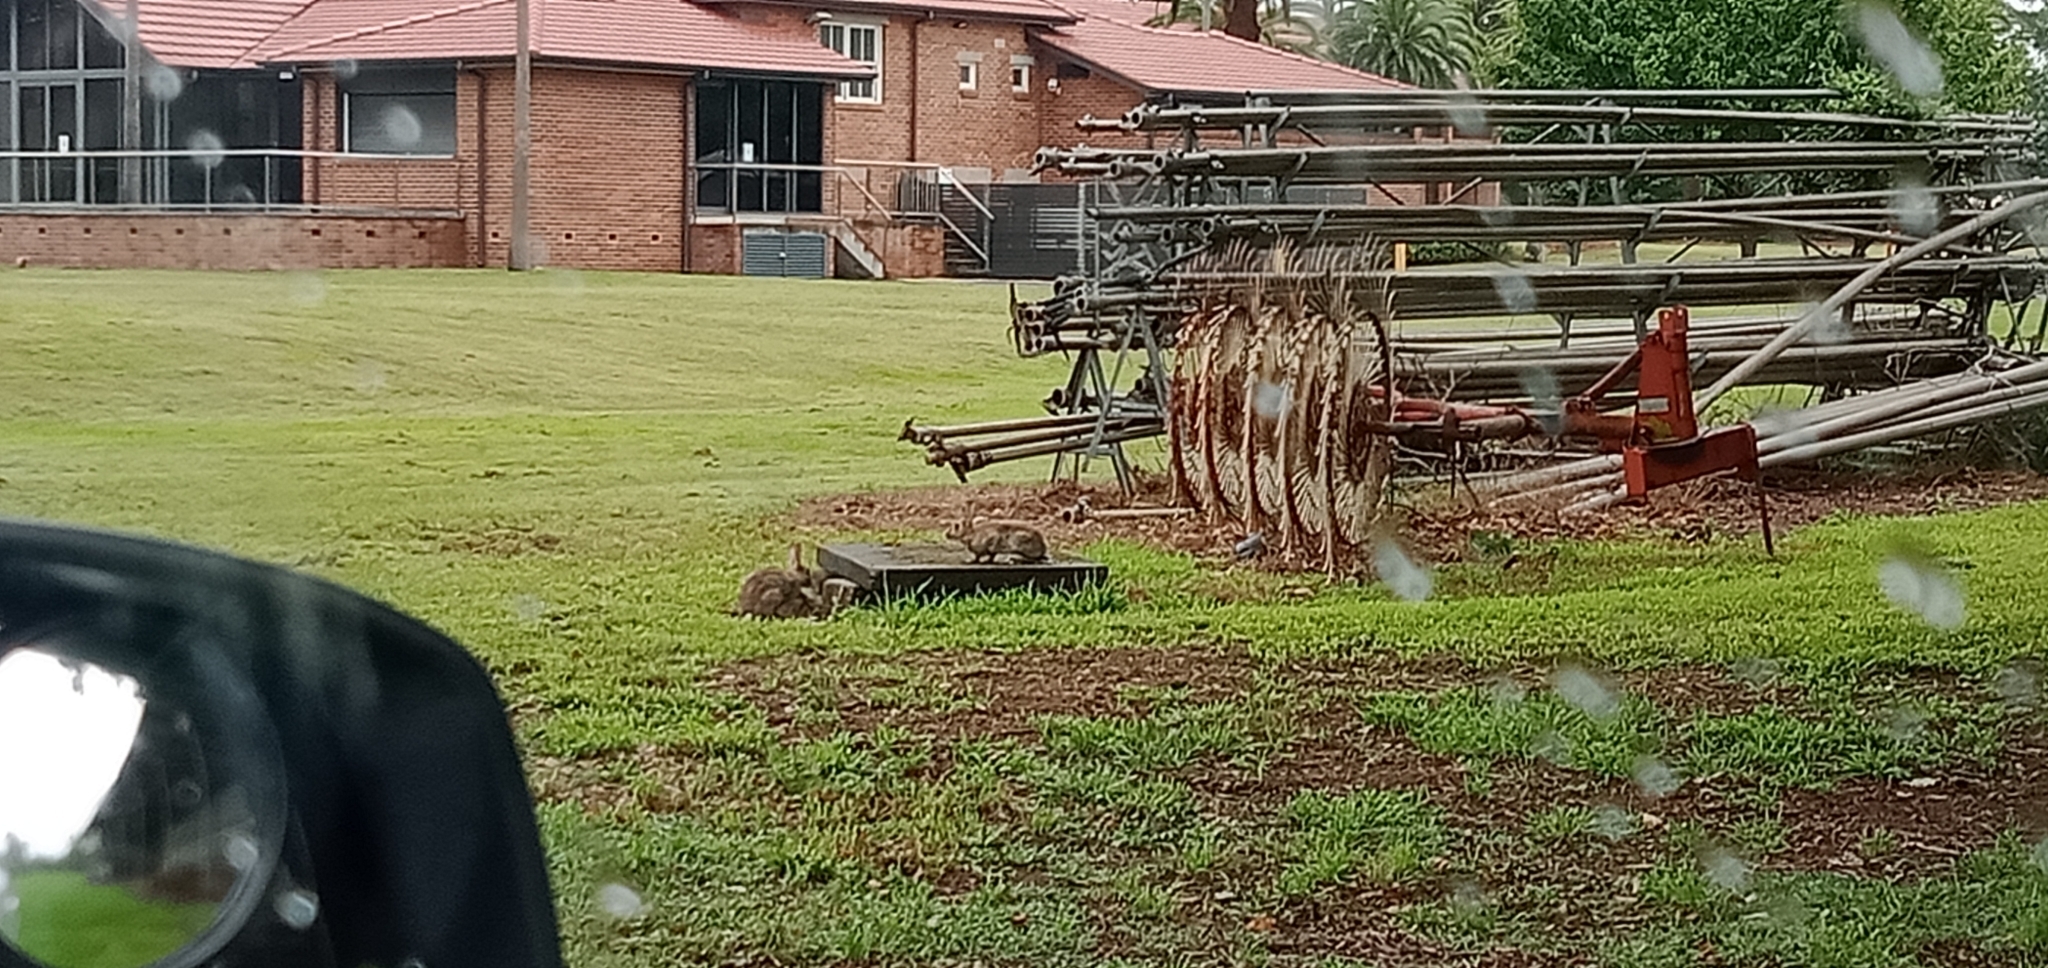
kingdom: Animalia
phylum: Chordata
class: Mammalia
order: Lagomorpha
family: Leporidae
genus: Oryctolagus
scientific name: Oryctolagus cuniculus
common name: European rabbit
